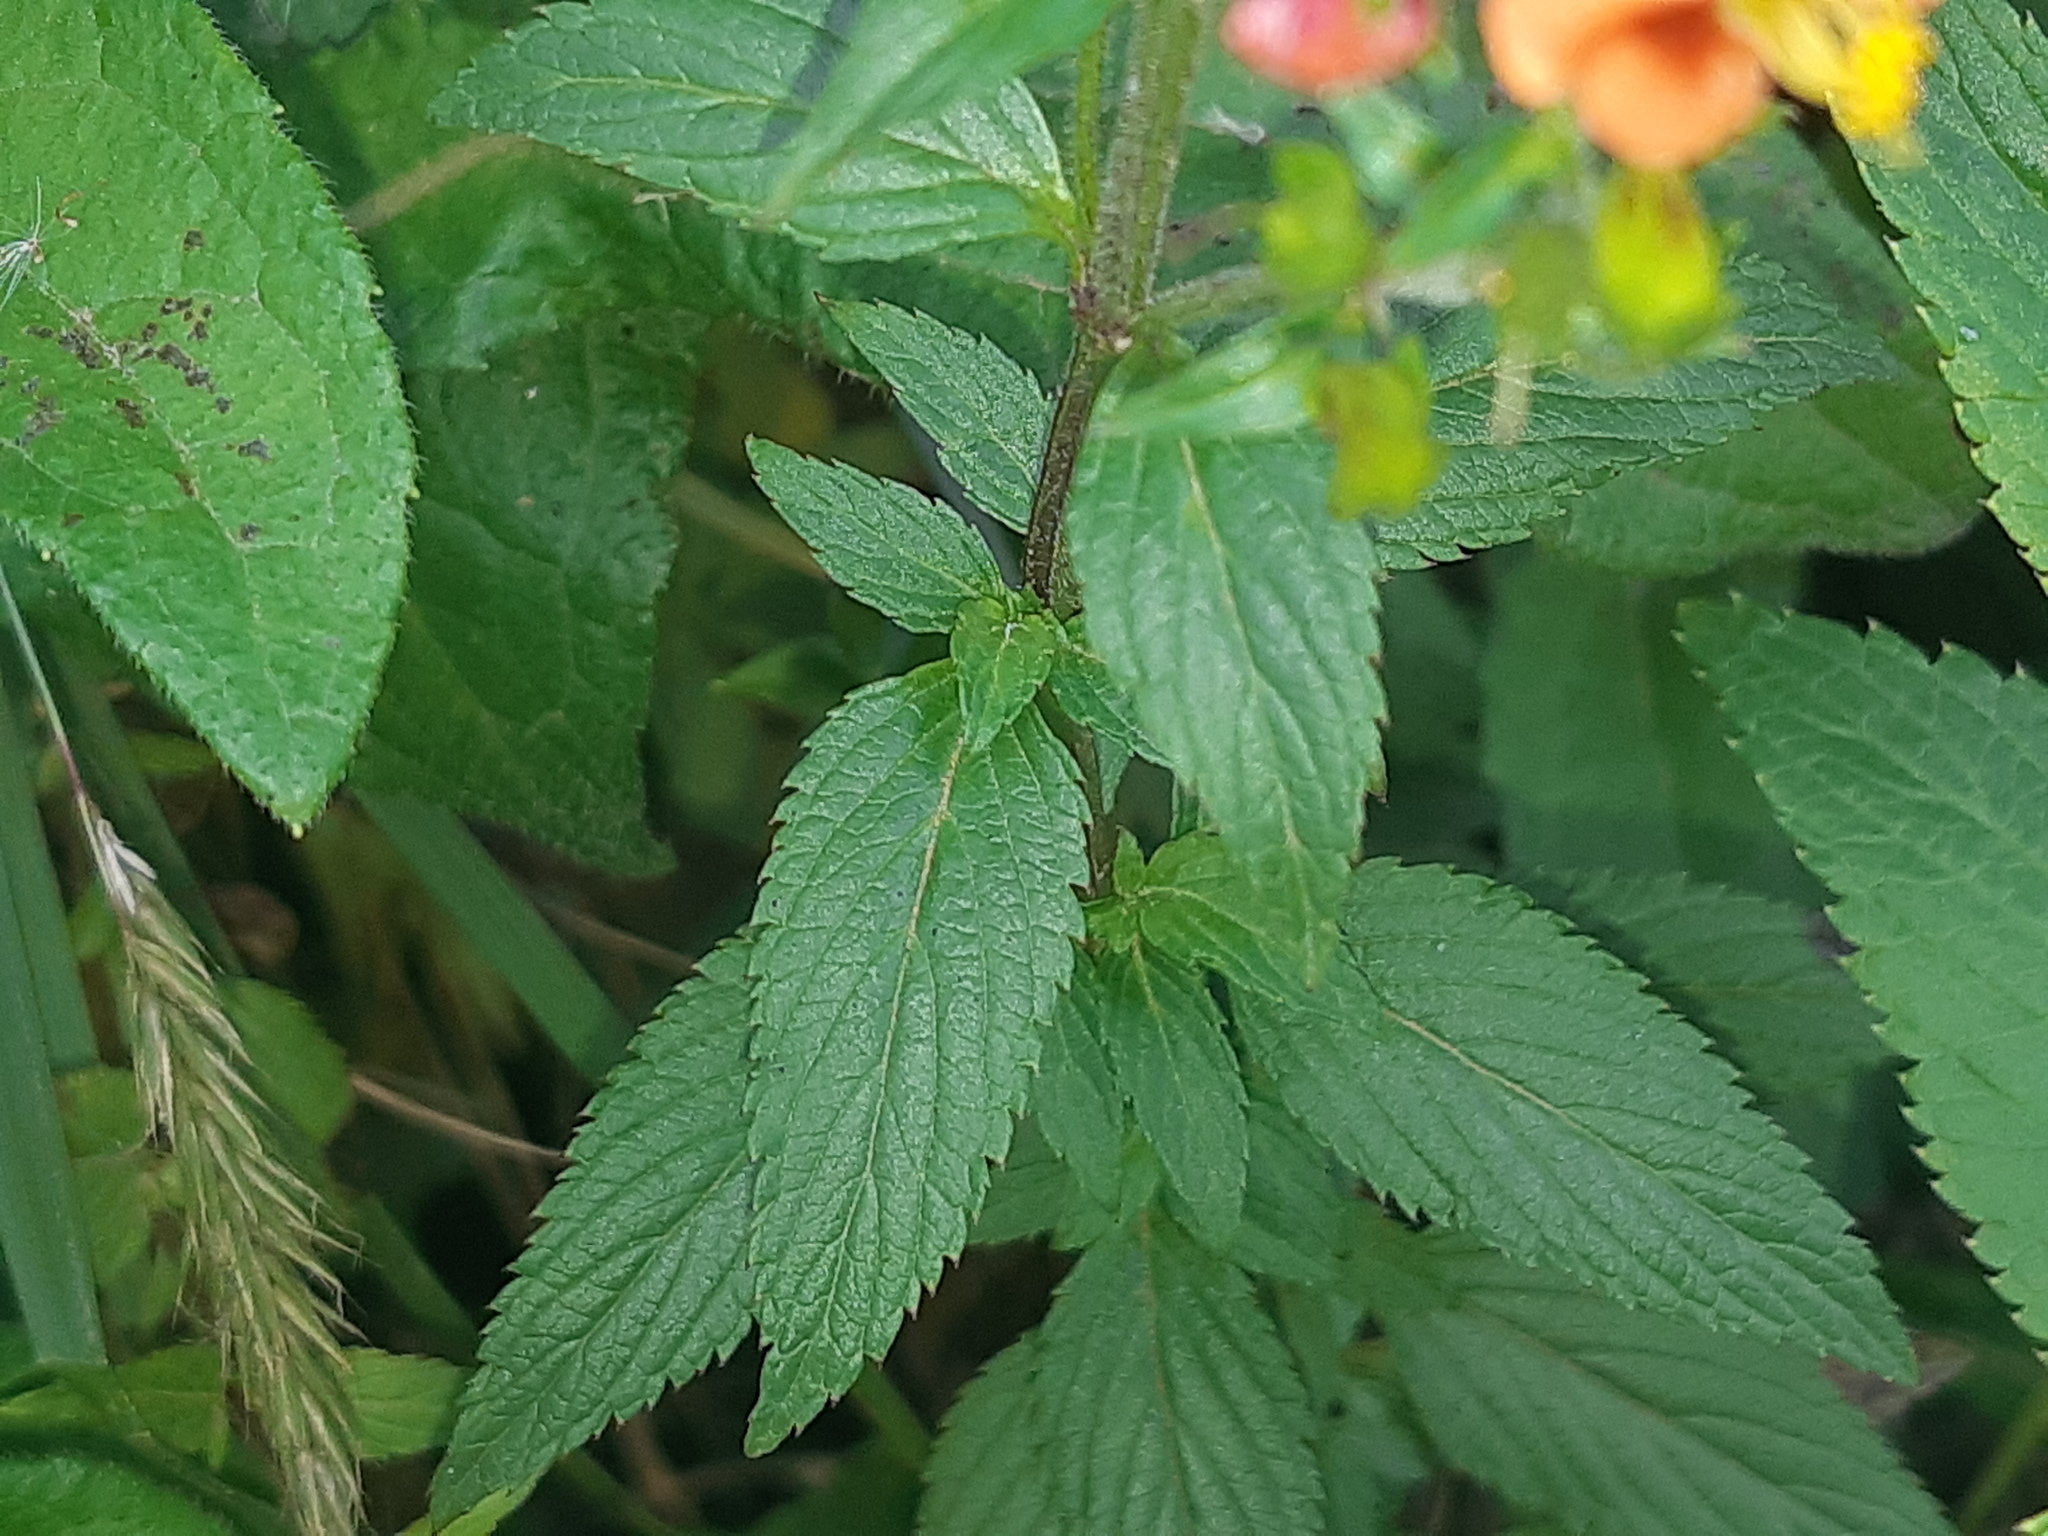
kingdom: Plantae
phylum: Tracheophyta
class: Magnoliopsida
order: Lamiales
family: Scrophulariaceae
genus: Alonsoa
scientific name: Alonsoa meridionalis
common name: Maskflower
